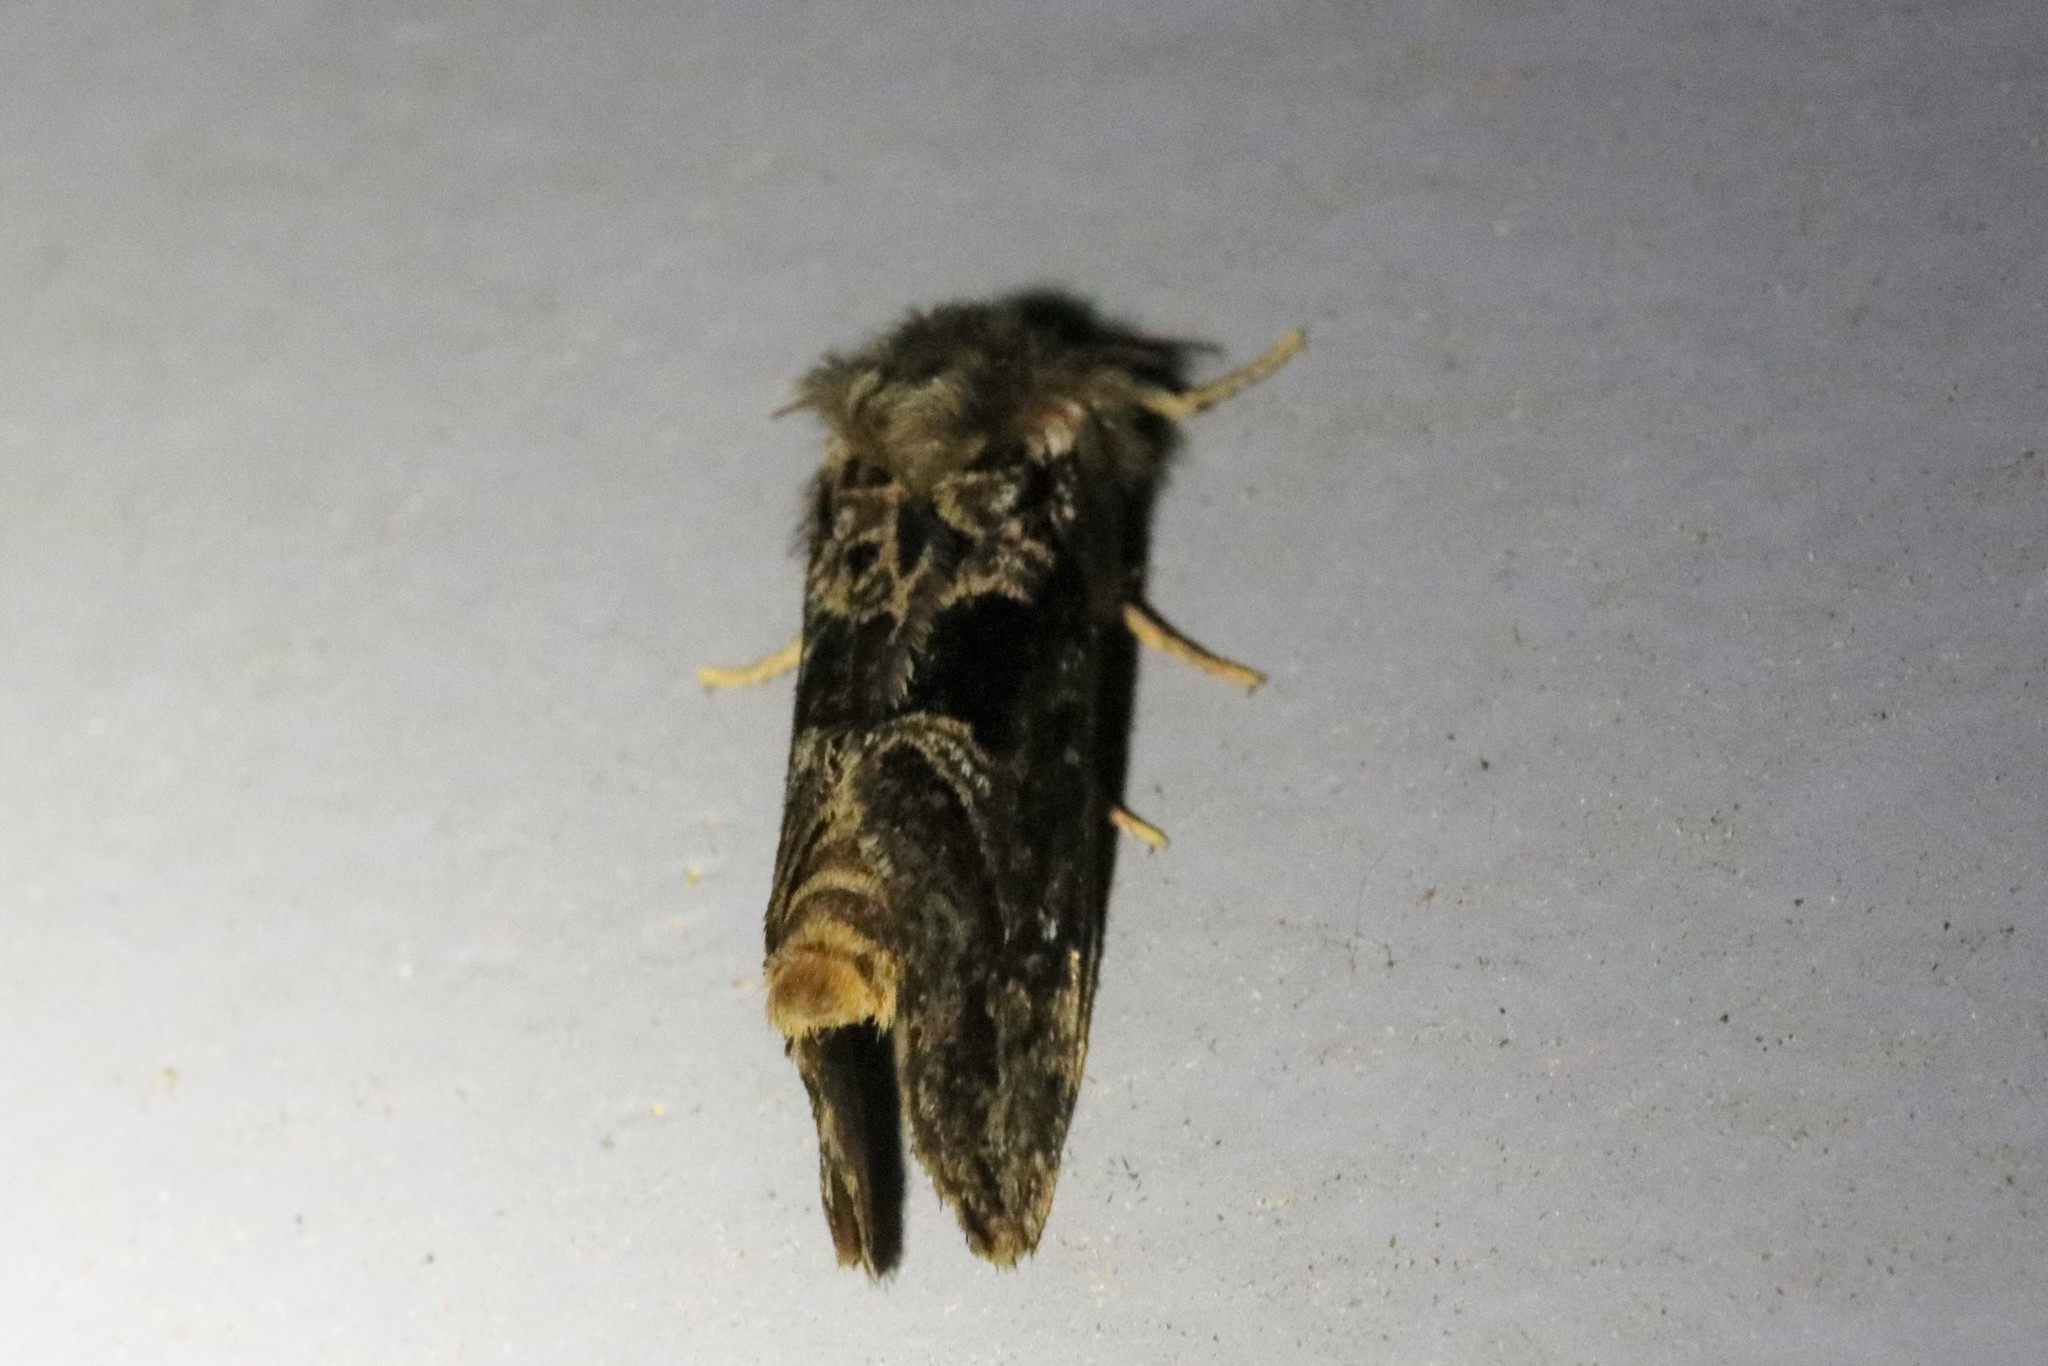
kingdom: Animalia
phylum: Arthropoda
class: Insecta
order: Lepidoptera
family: Hepialidae
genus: Korscheltellus
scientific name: Korscheltellus gracilis
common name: Conifer swift moth
